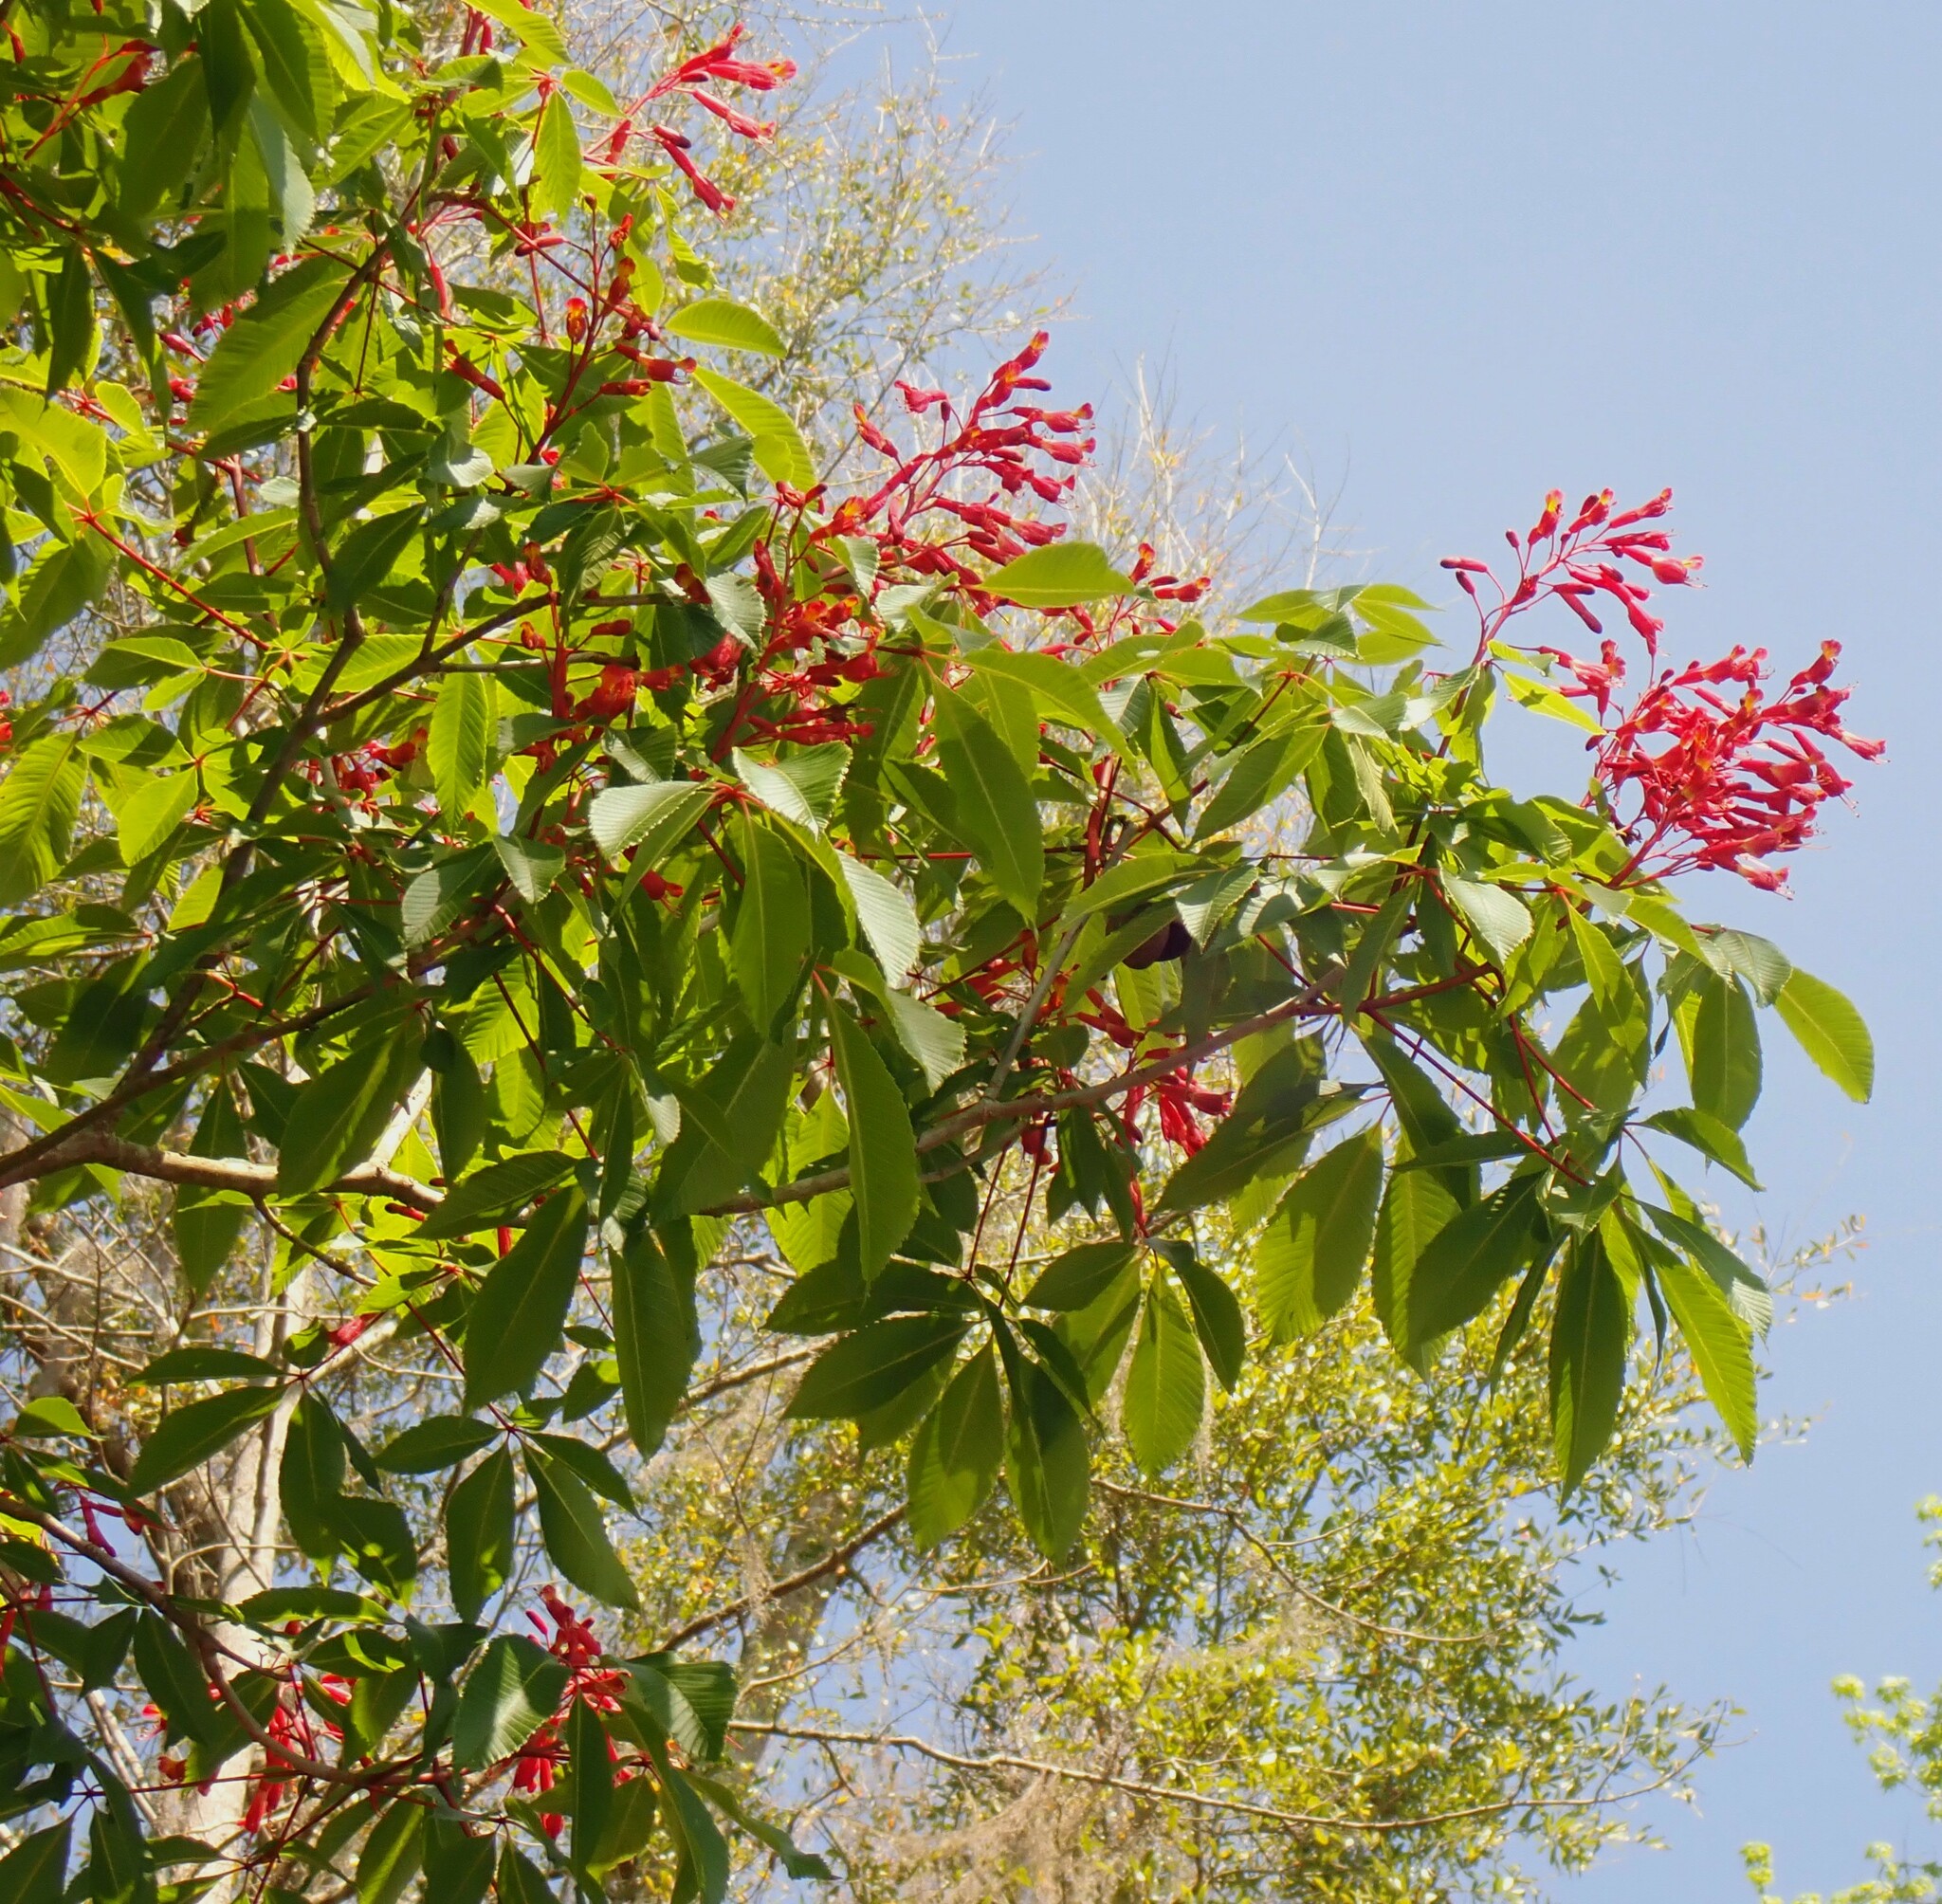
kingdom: Plantae
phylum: Tracheophyta
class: Magnoliopsida
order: Sapindales
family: Sapindaceae
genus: Aesculus
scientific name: Aesculus pavia
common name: Red buckeye
